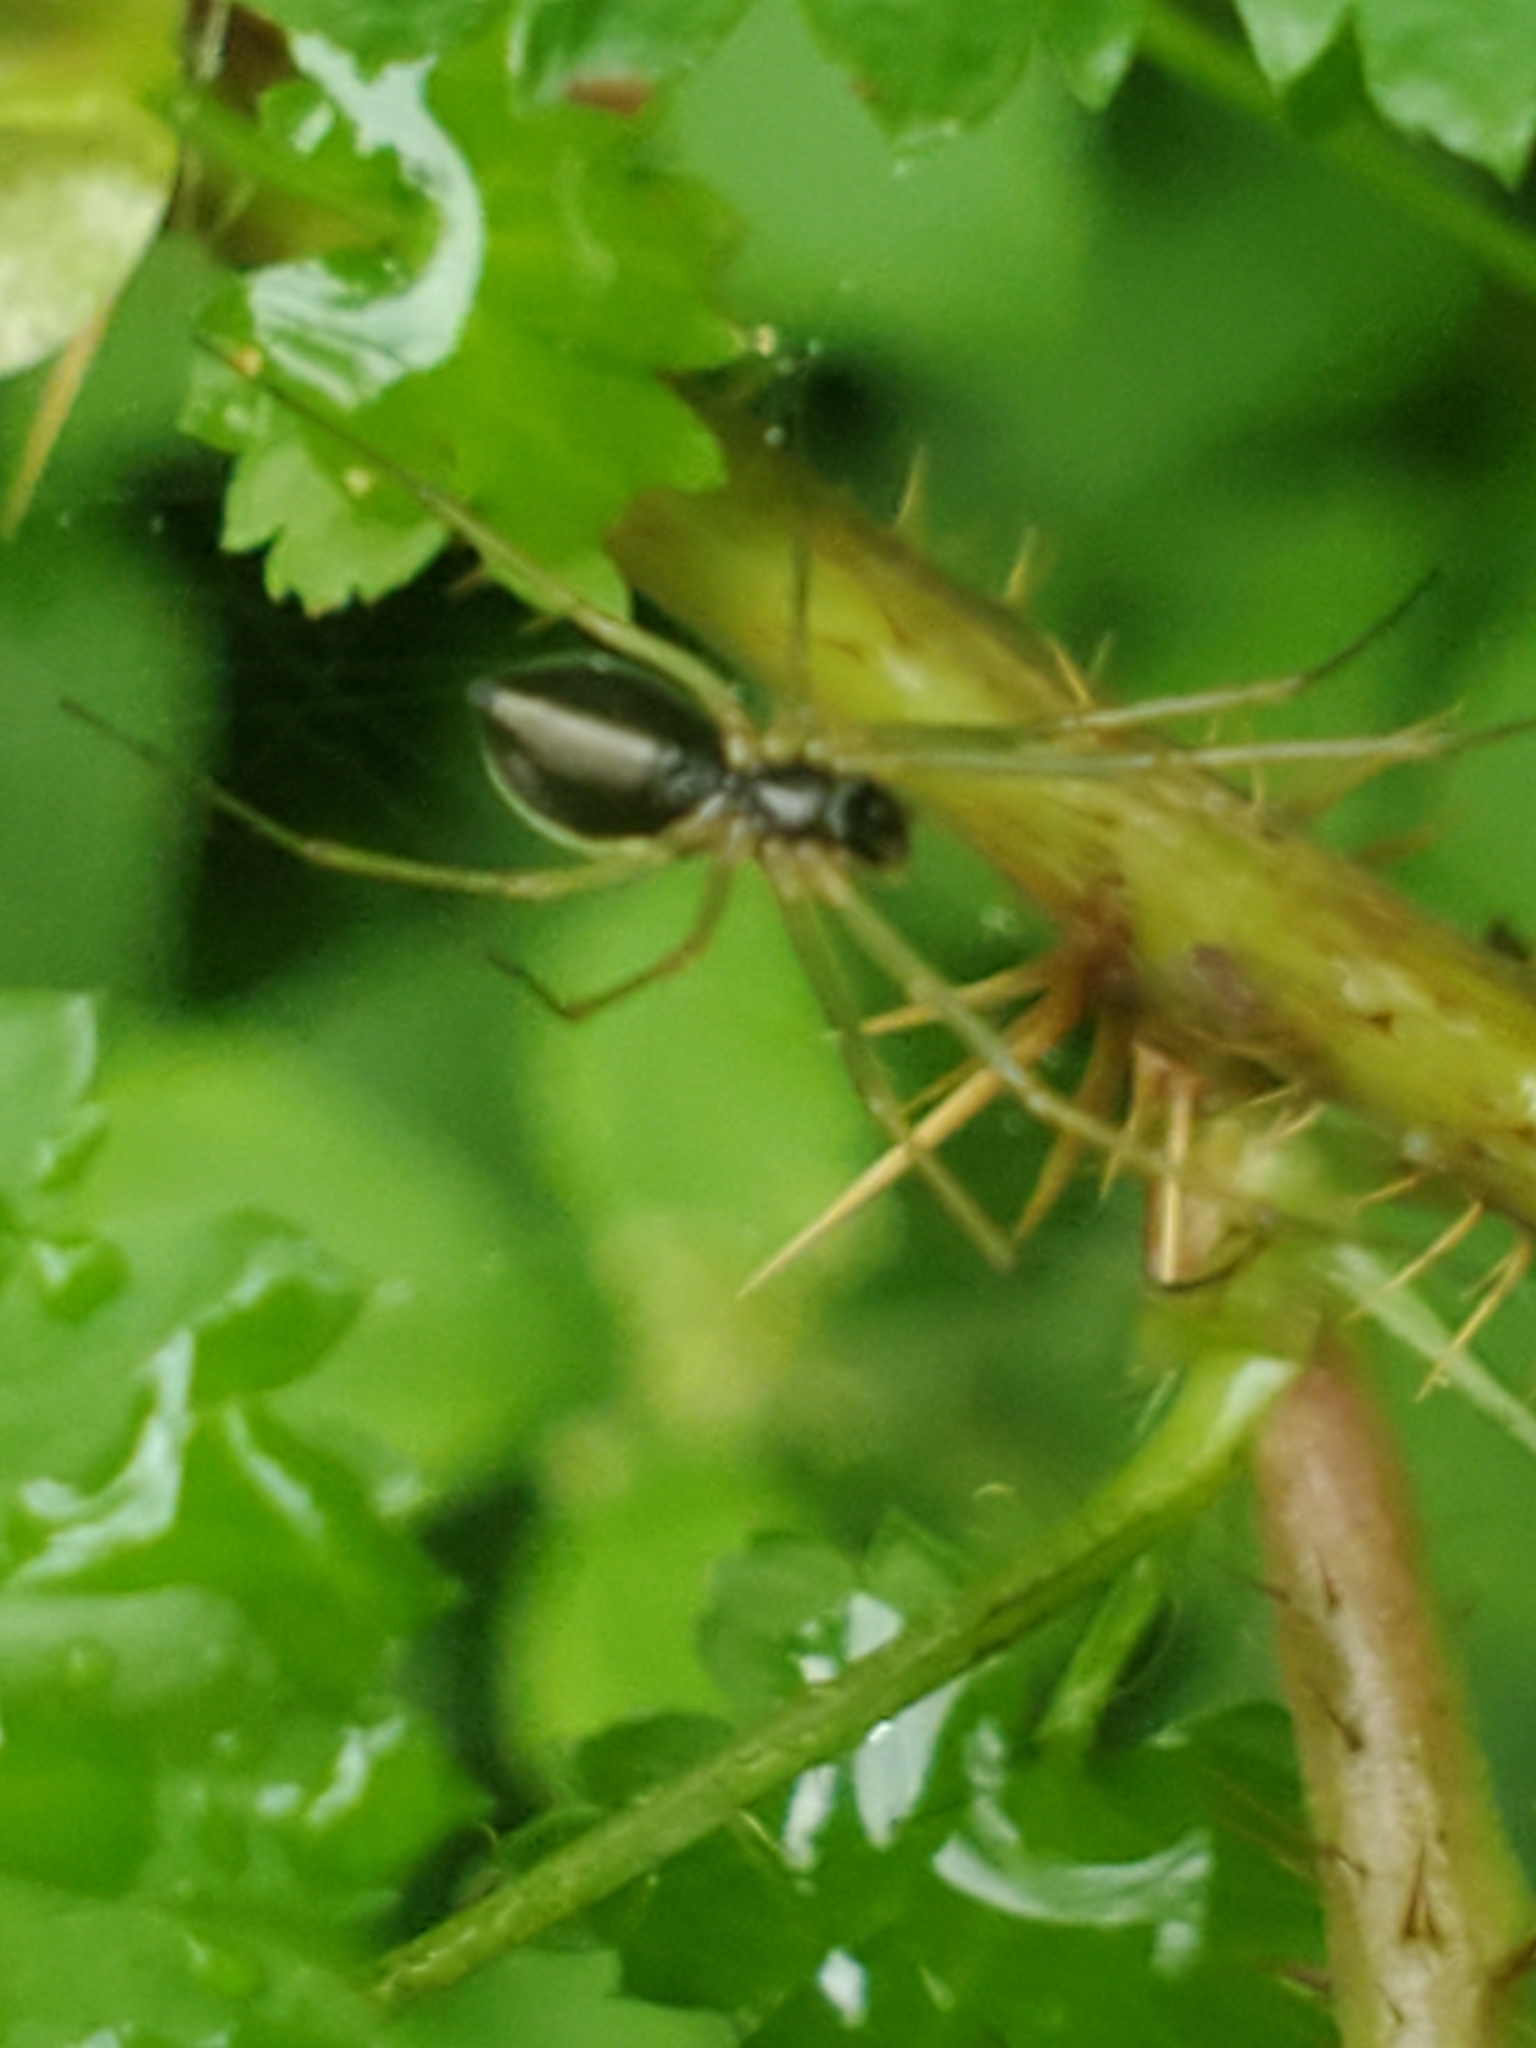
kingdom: Animalia
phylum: Arthropoda
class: Arachnida
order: Araneae
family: Linyphiidae
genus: Microlinyphia
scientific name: Microlinyphia dana
